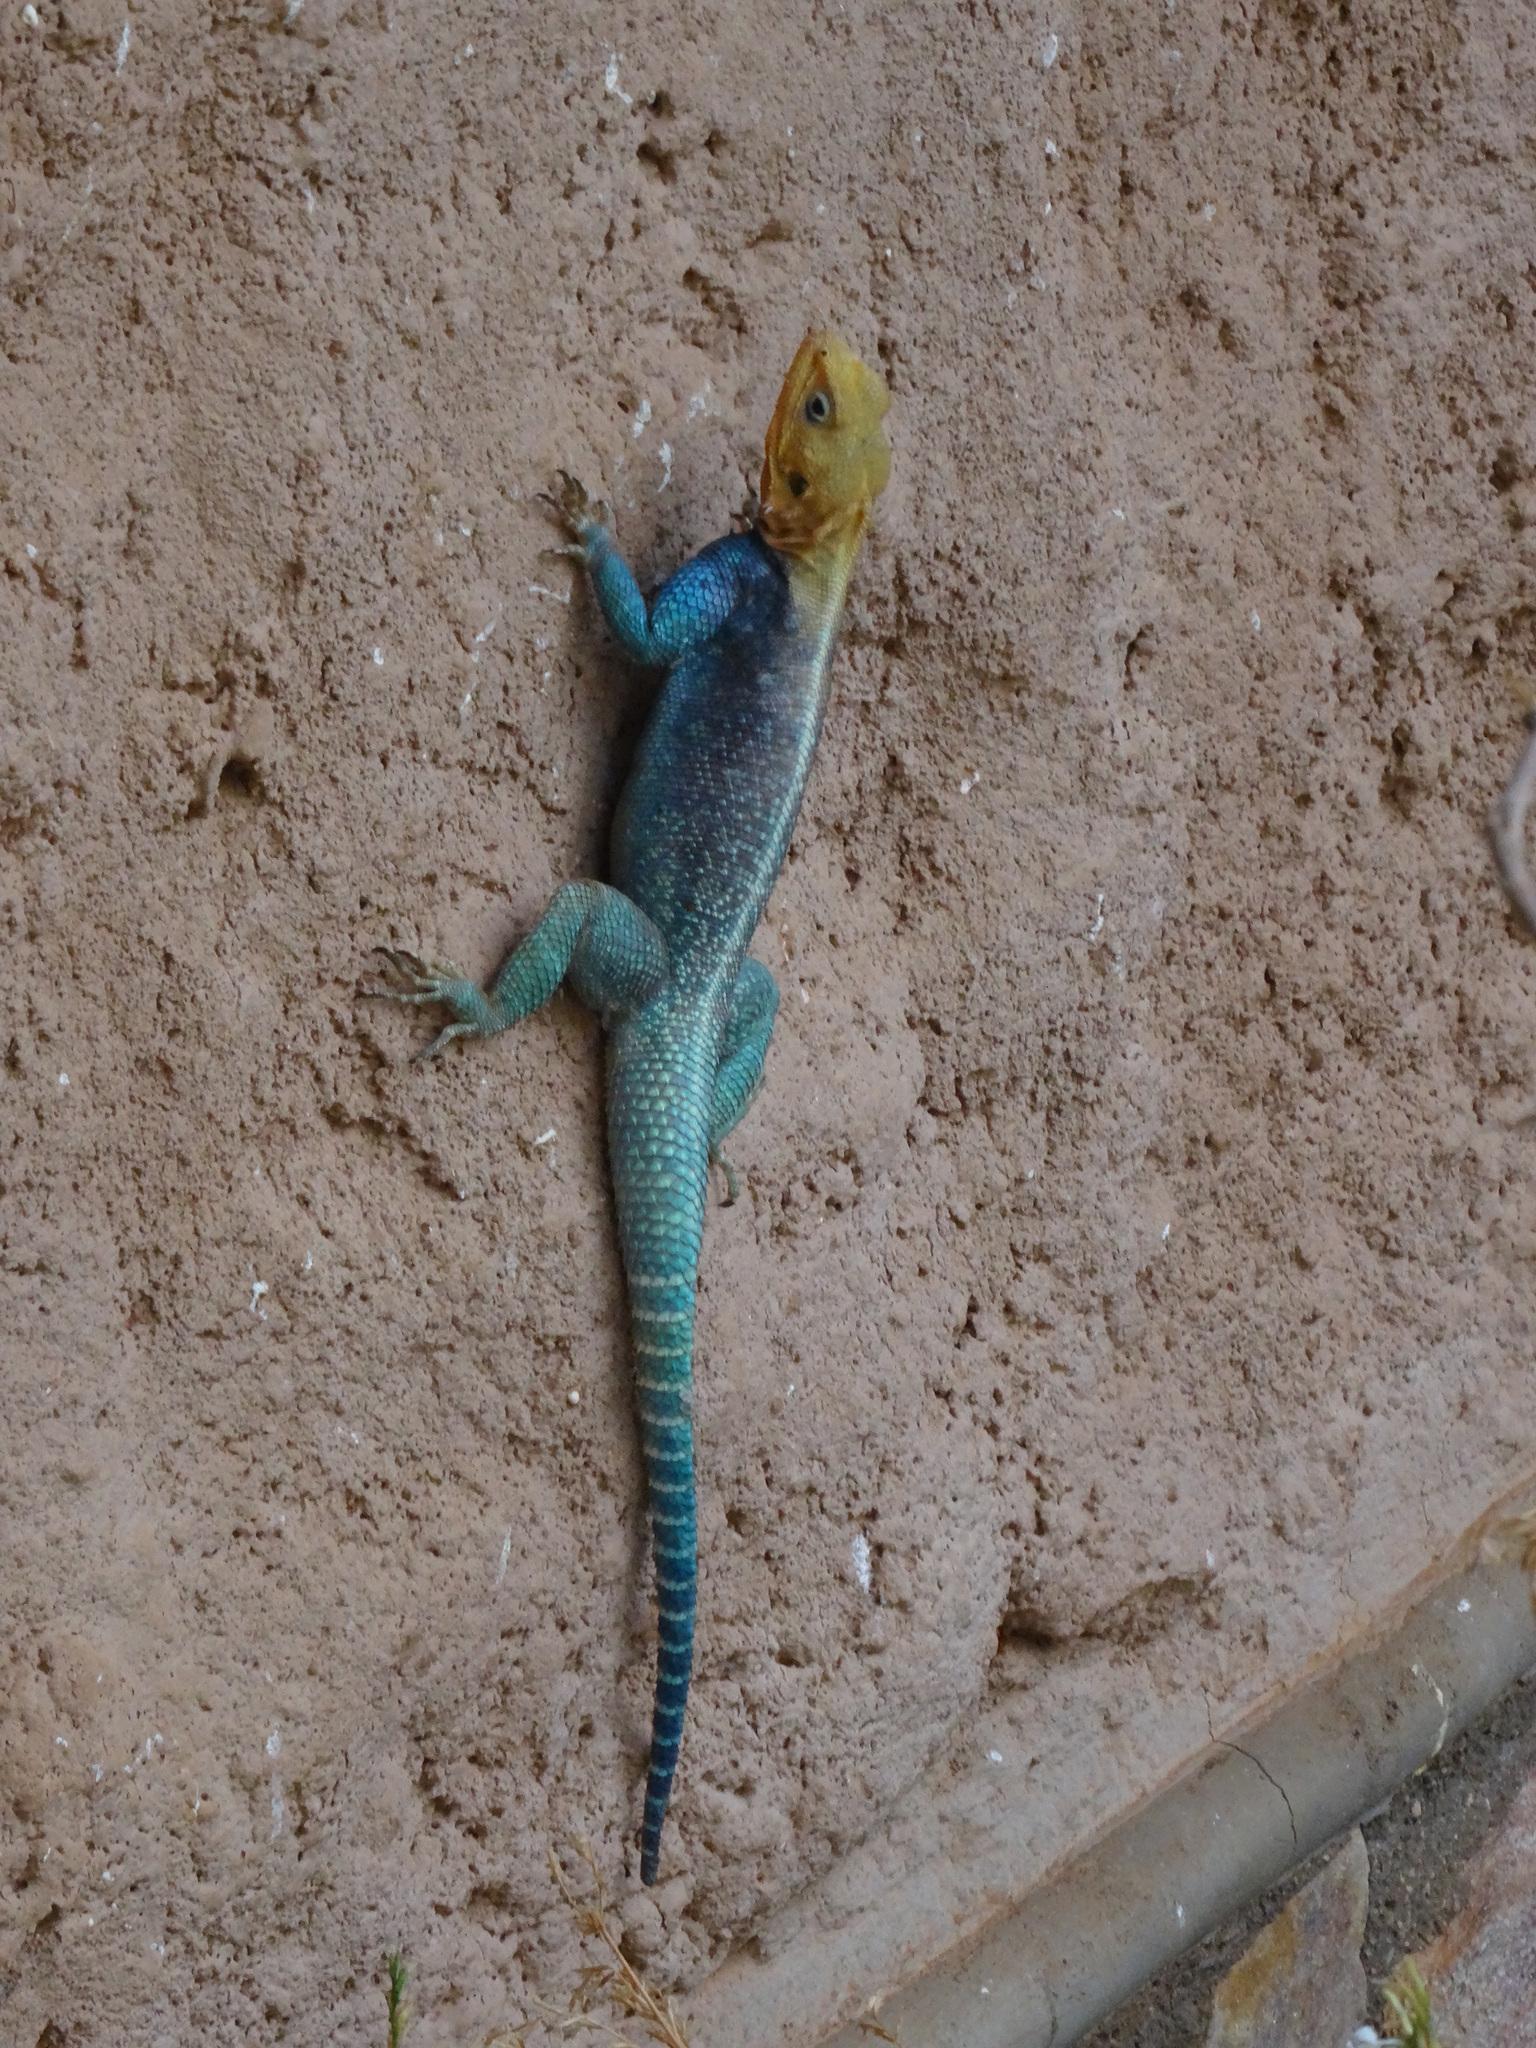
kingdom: Animalia
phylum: Chordata
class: Squamata
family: Agamidae
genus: Agama
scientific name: Agama lionotus
